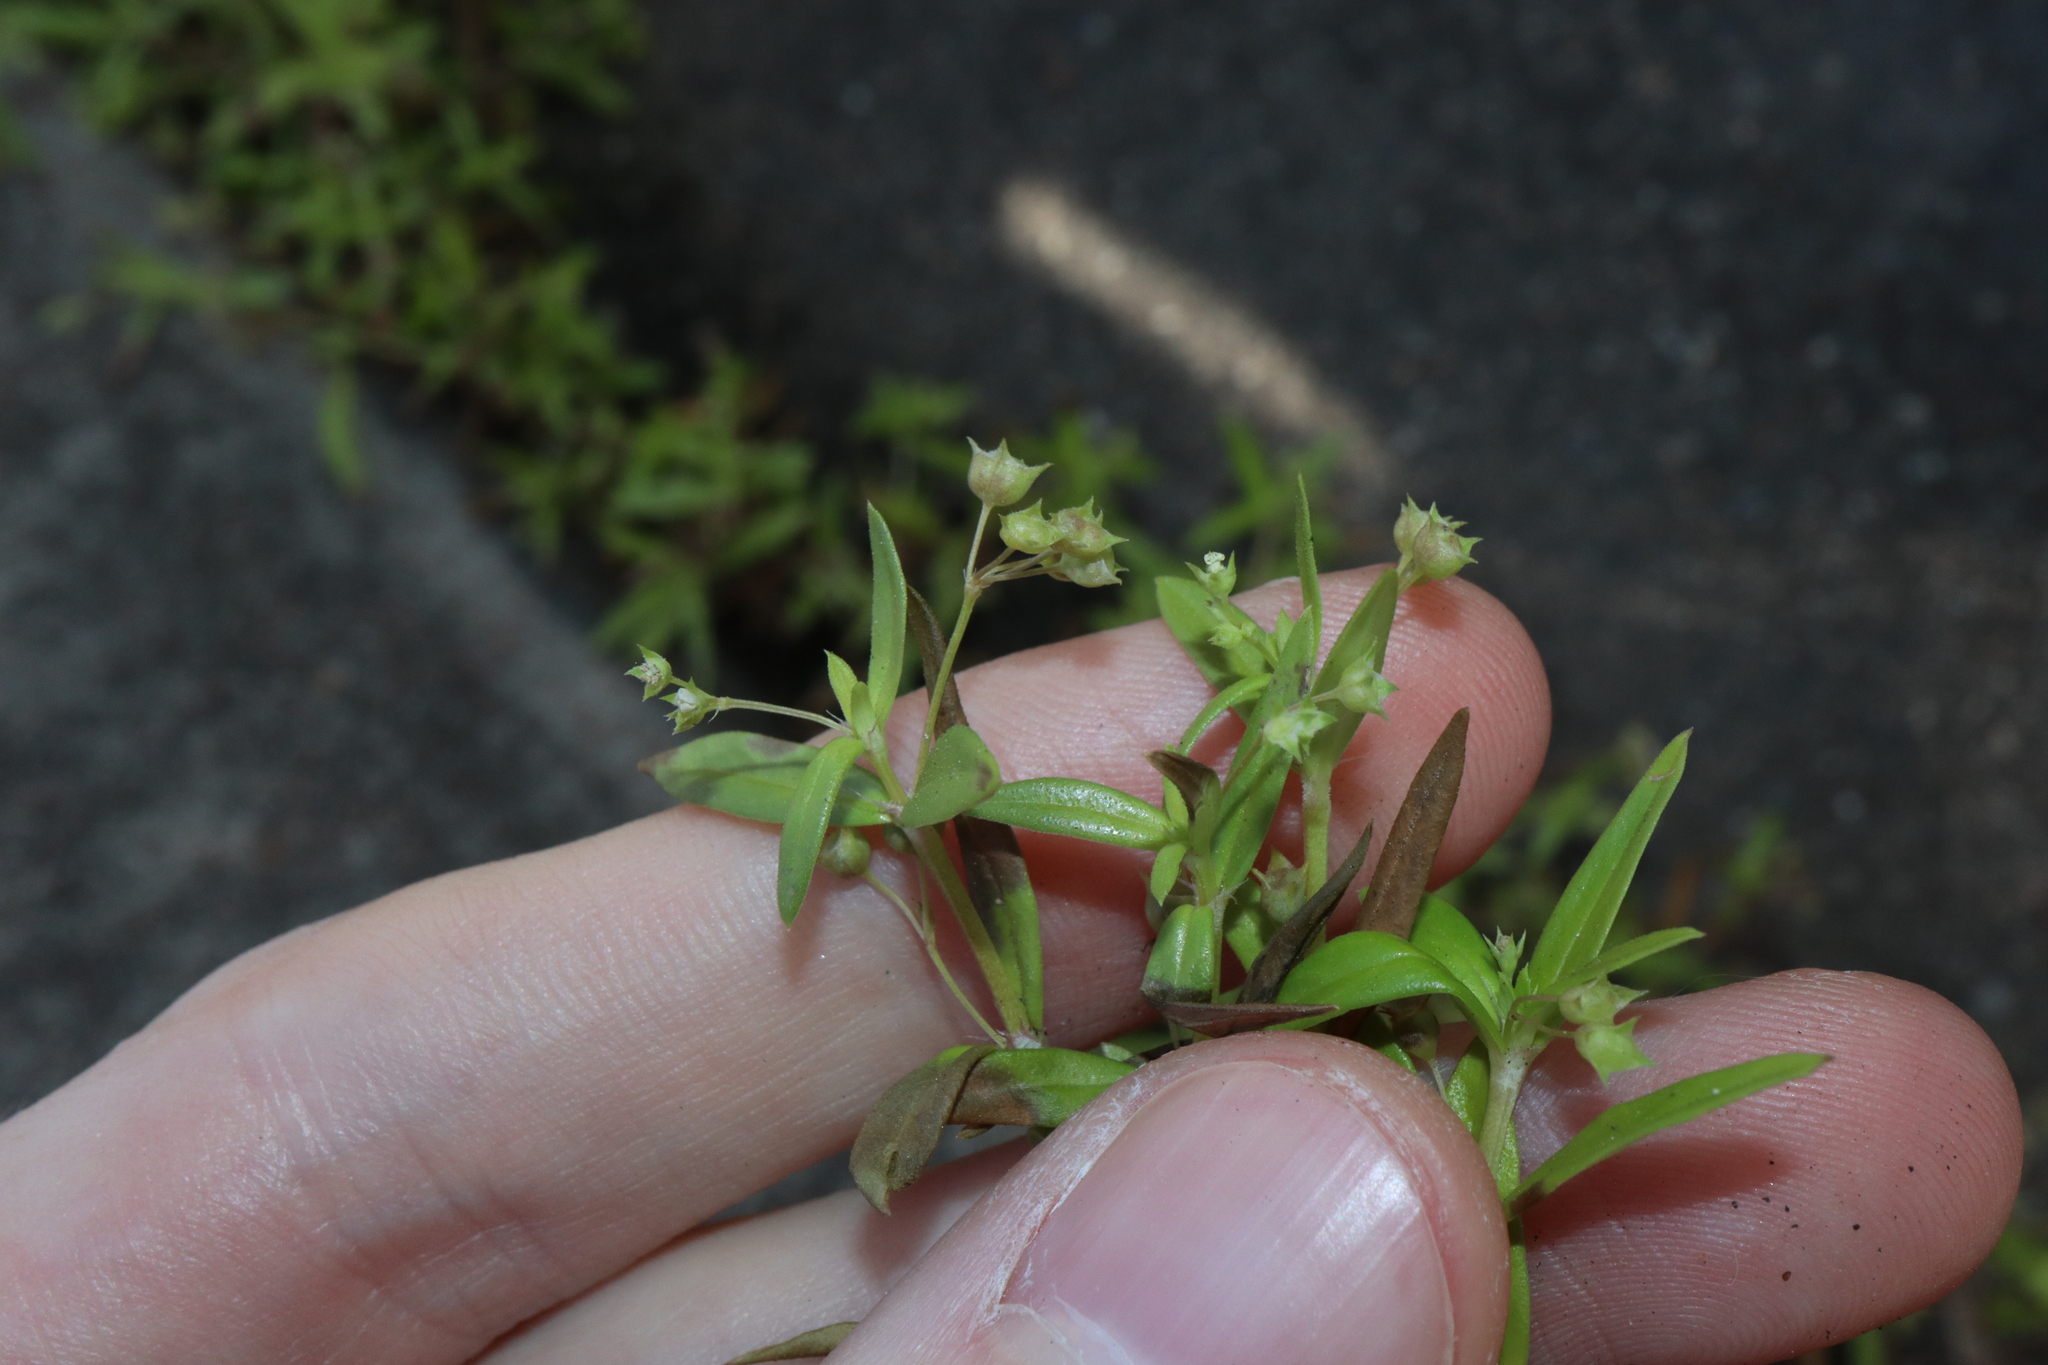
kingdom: Plantae
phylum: Tracheophyta
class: Magnoliopsida
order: Gentianales
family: Rubiaceae
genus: Oldenlandia
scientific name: Oldenlandia corymbosa
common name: Flat-top mille graines
